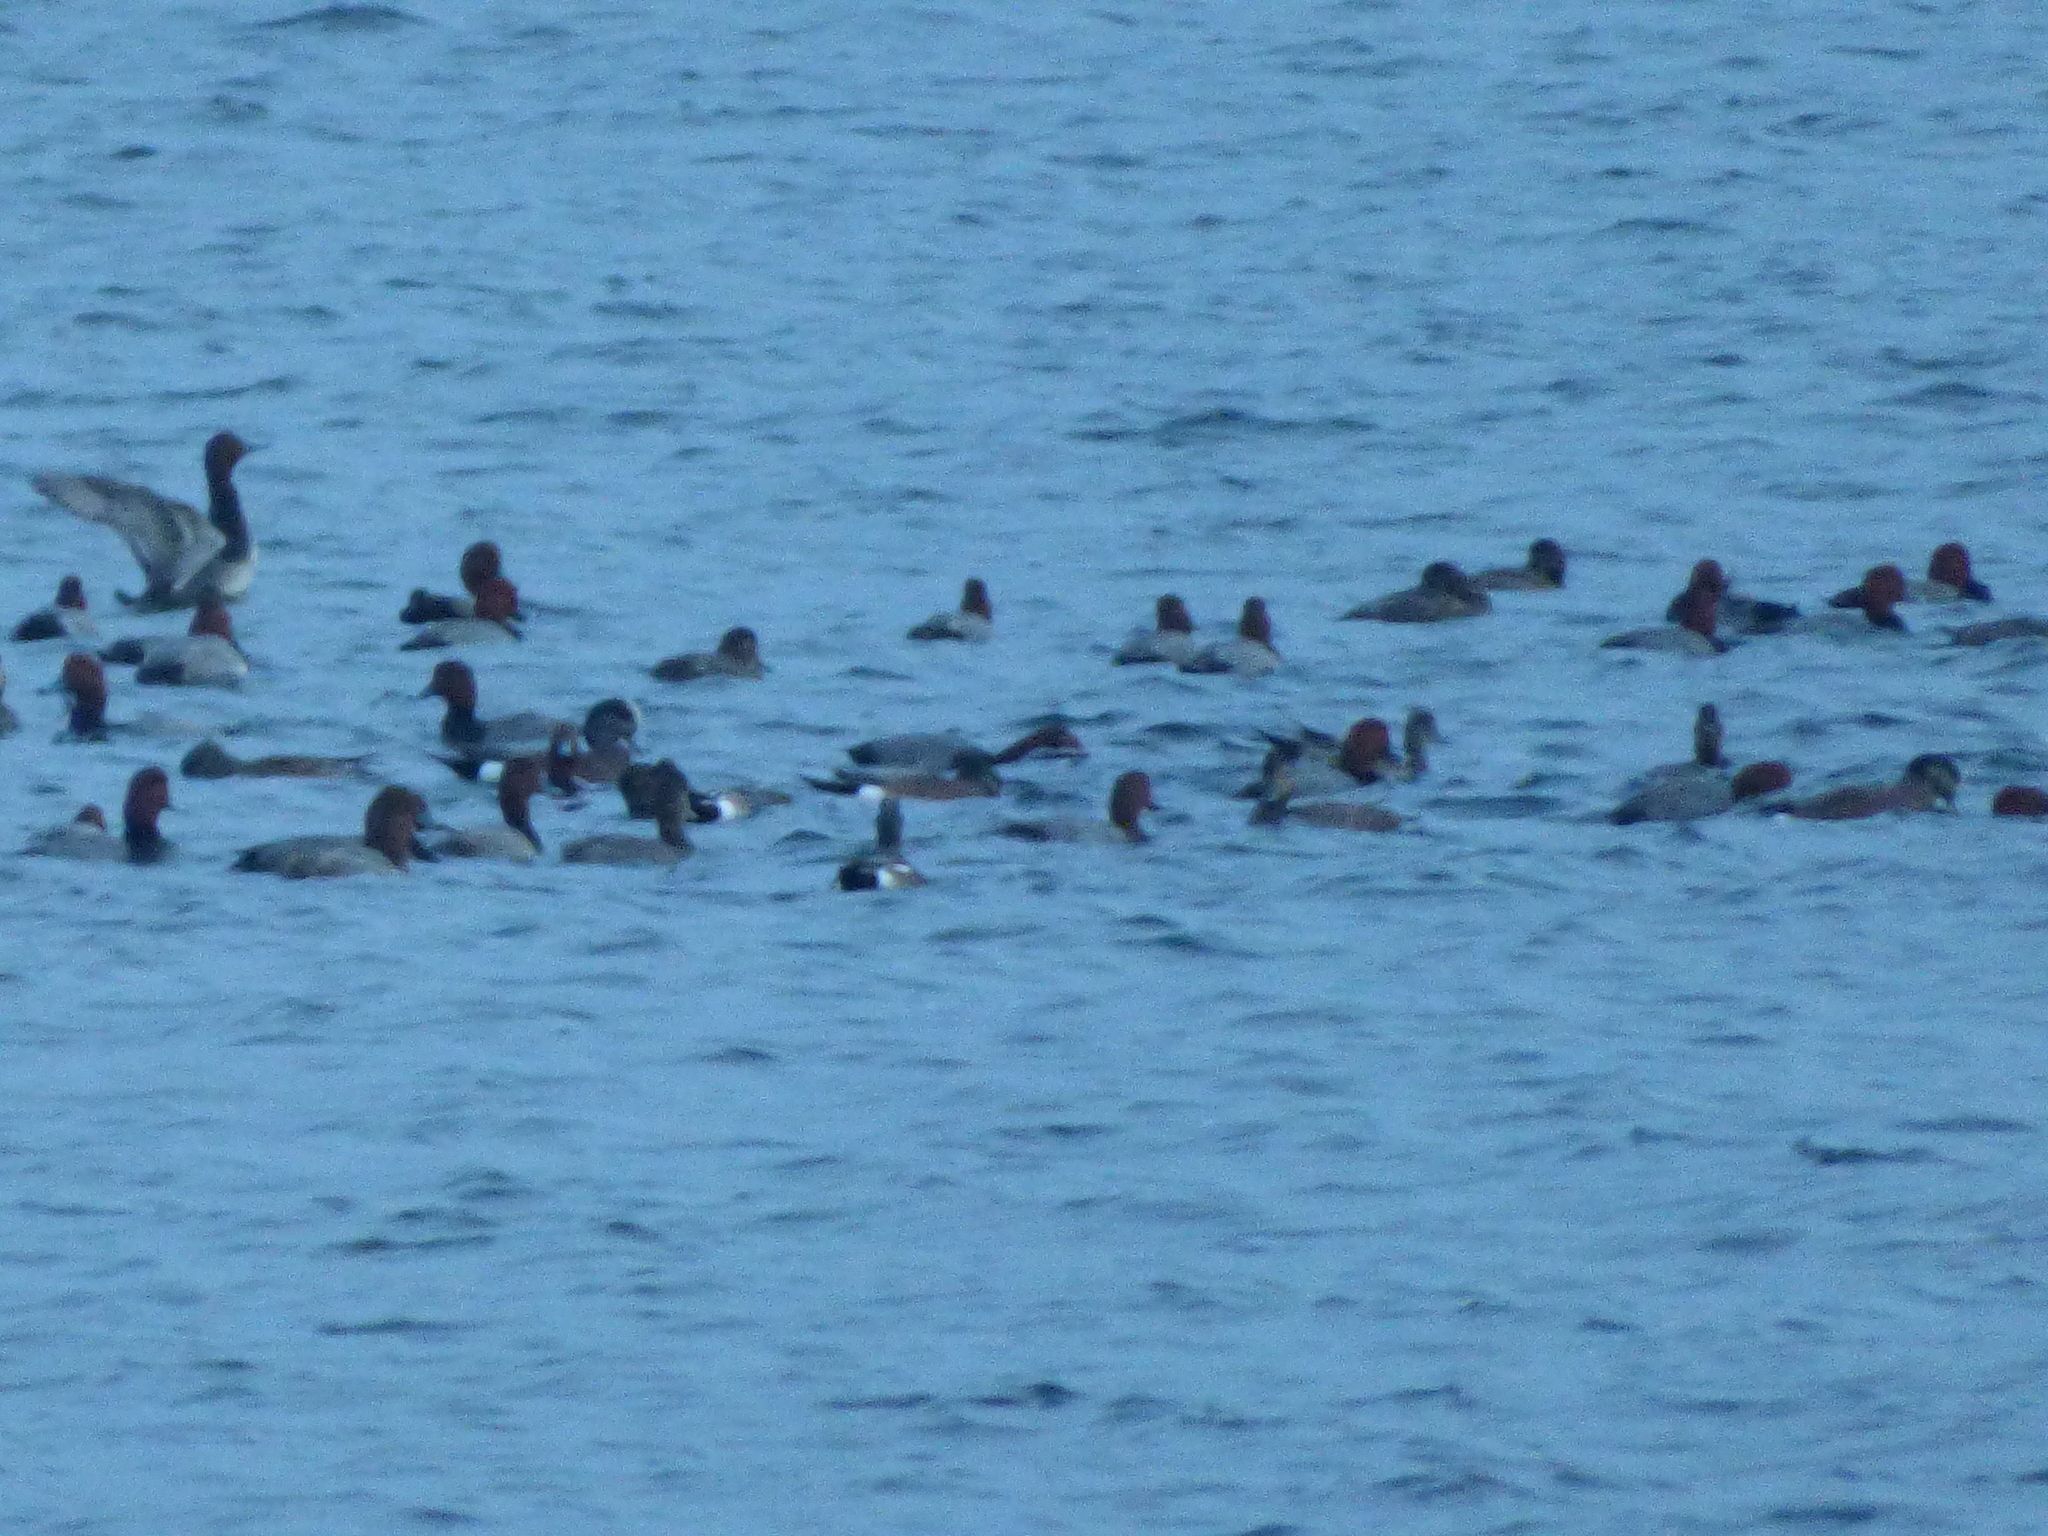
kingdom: Animalia
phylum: Chordata
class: Aves
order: Anseriformes
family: Anatidae
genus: Mareca
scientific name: Mareca americana
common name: American wigeon
